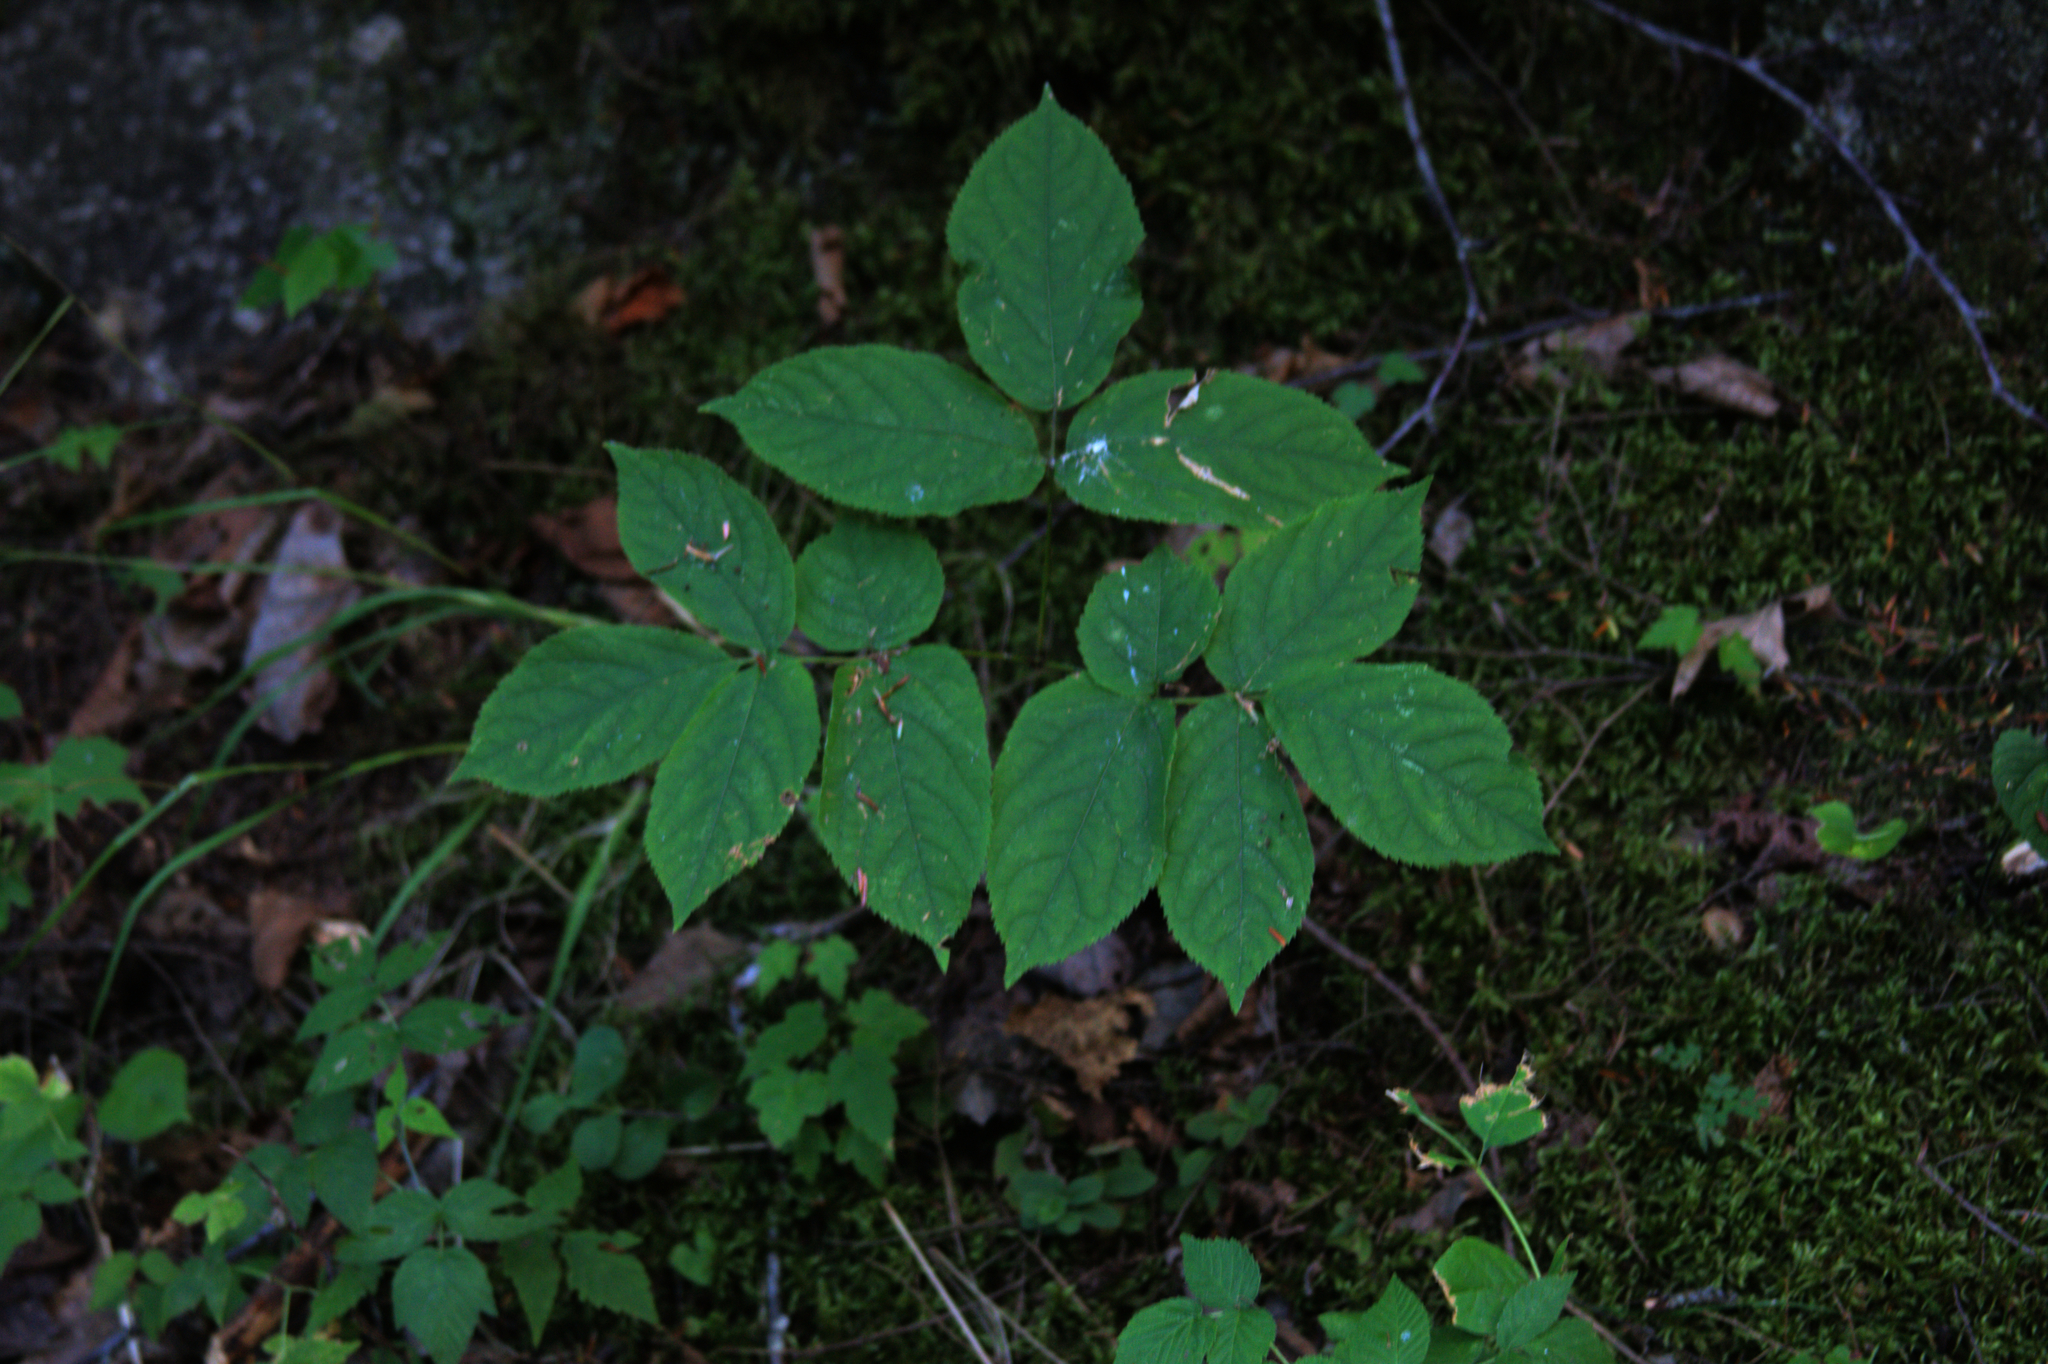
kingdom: Plantae
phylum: Tracheophyta
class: Magnoliopsida
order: Apiales
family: Araliaceae
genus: Aralia
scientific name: Aralia nudicaulis
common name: Wild sarsaparilla
